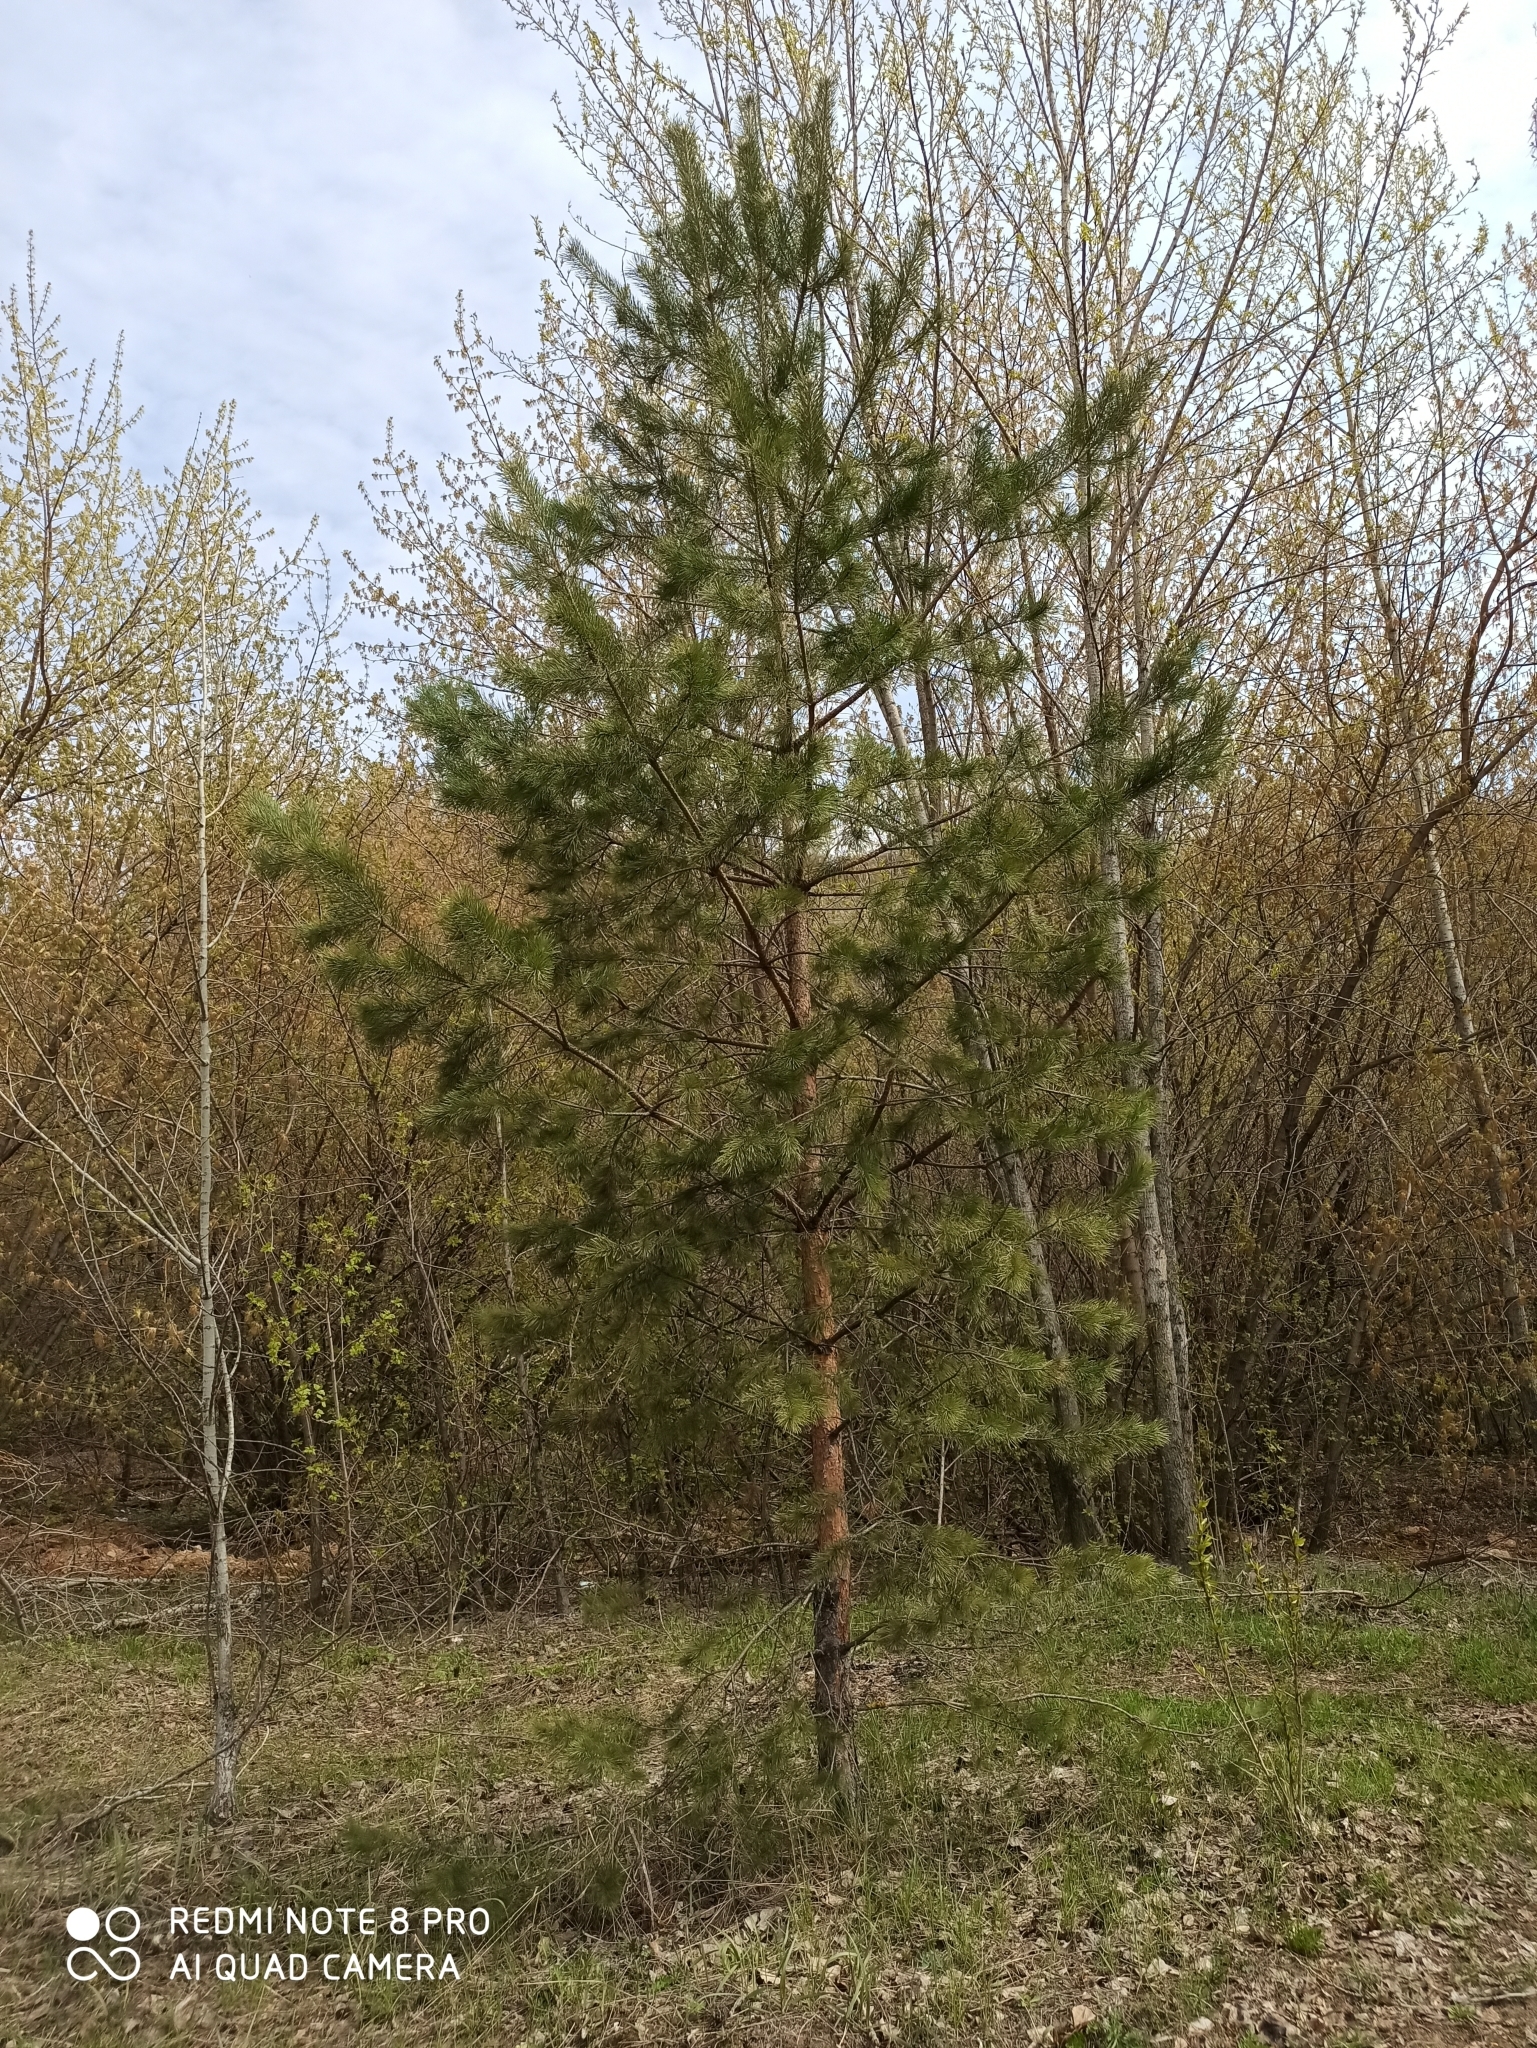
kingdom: Plantae
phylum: Tracheophyta
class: Pinopsida
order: Pinales
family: Pinaceae
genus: Pinus
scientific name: Pinus sylvestris
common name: Scots pine
